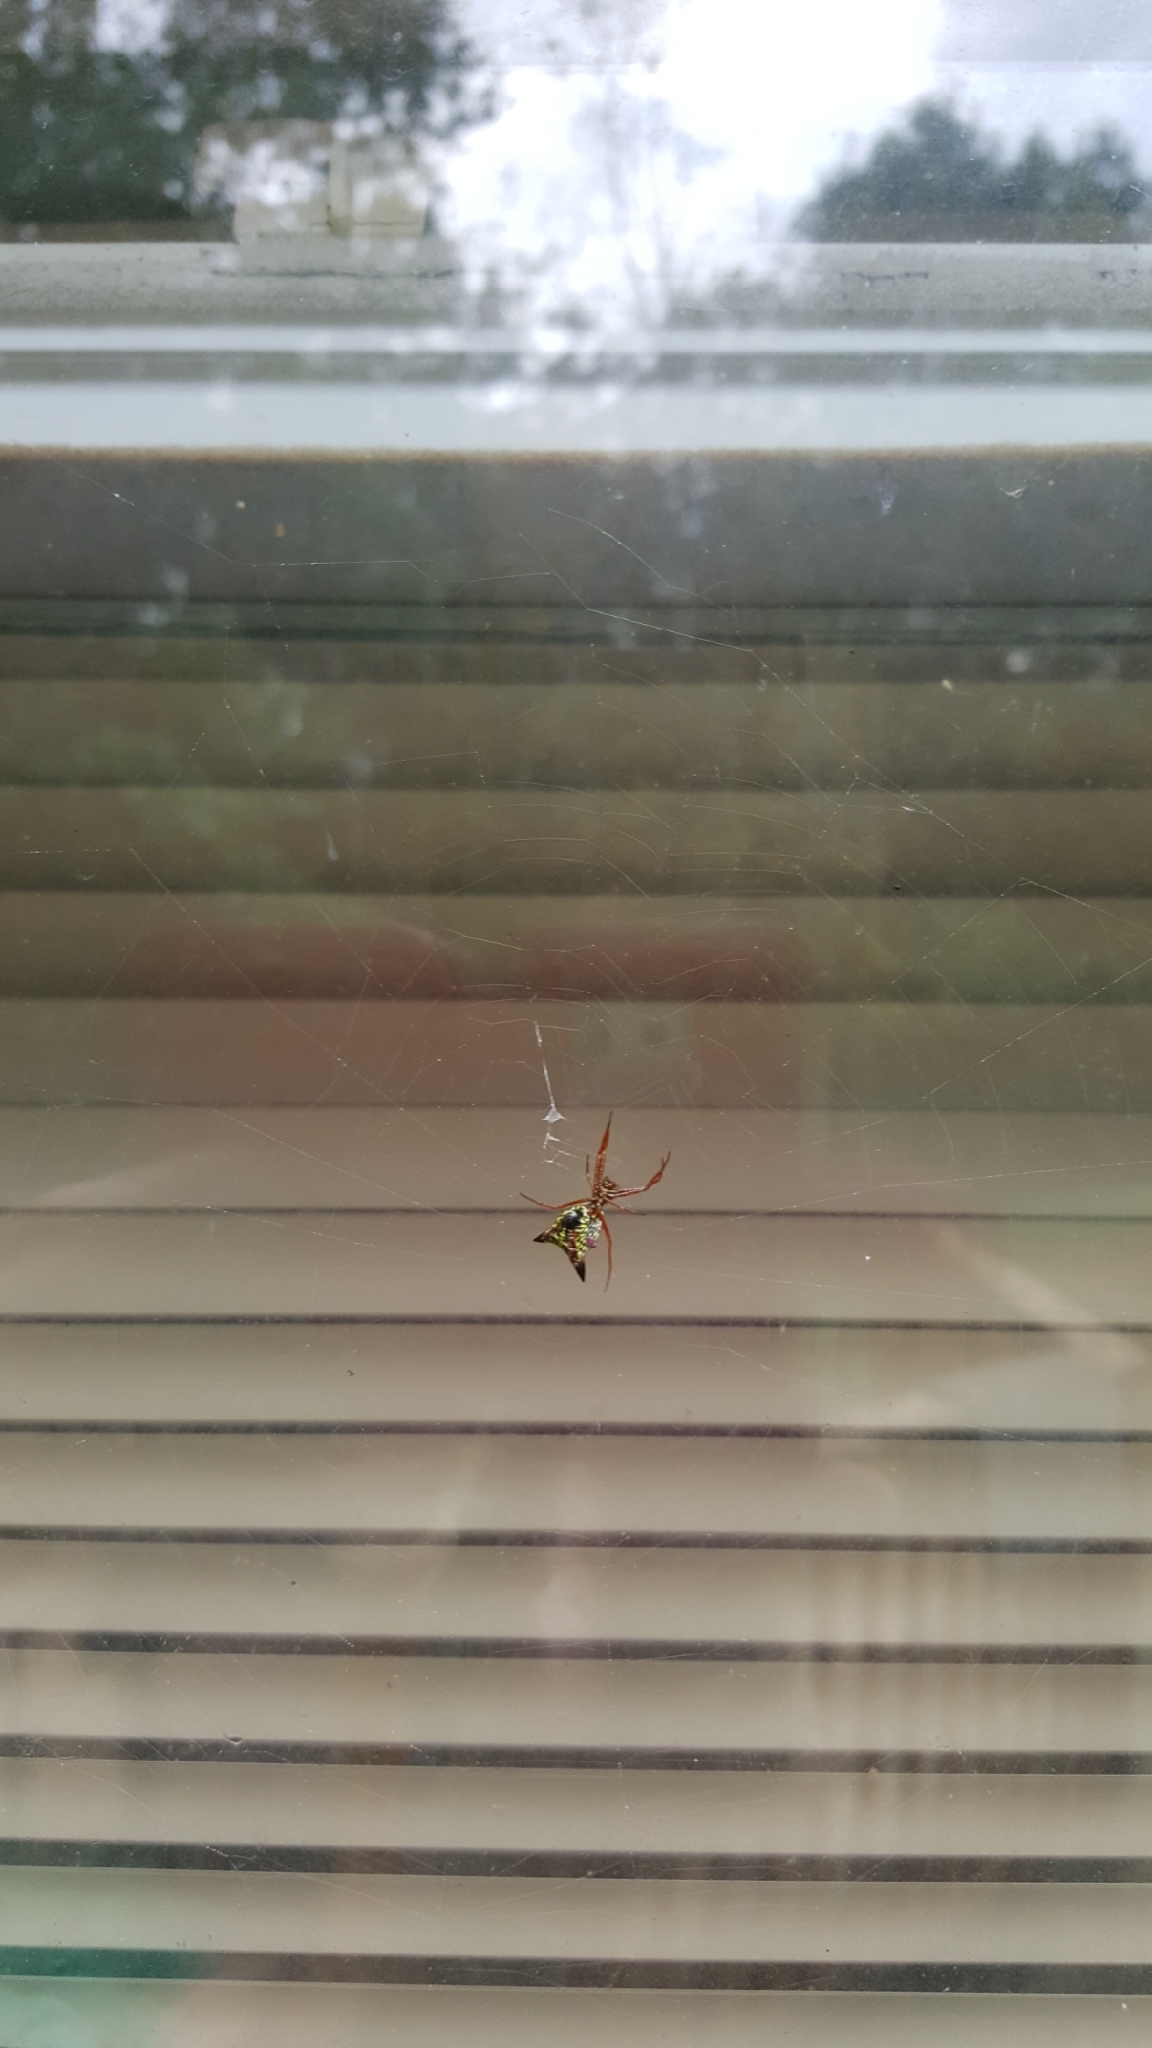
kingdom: Animalia
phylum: Arthropoda
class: Arachnida
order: Araneae
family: Araneidae
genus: Micrathena
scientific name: Micrathena sagittata
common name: Orb weavers
